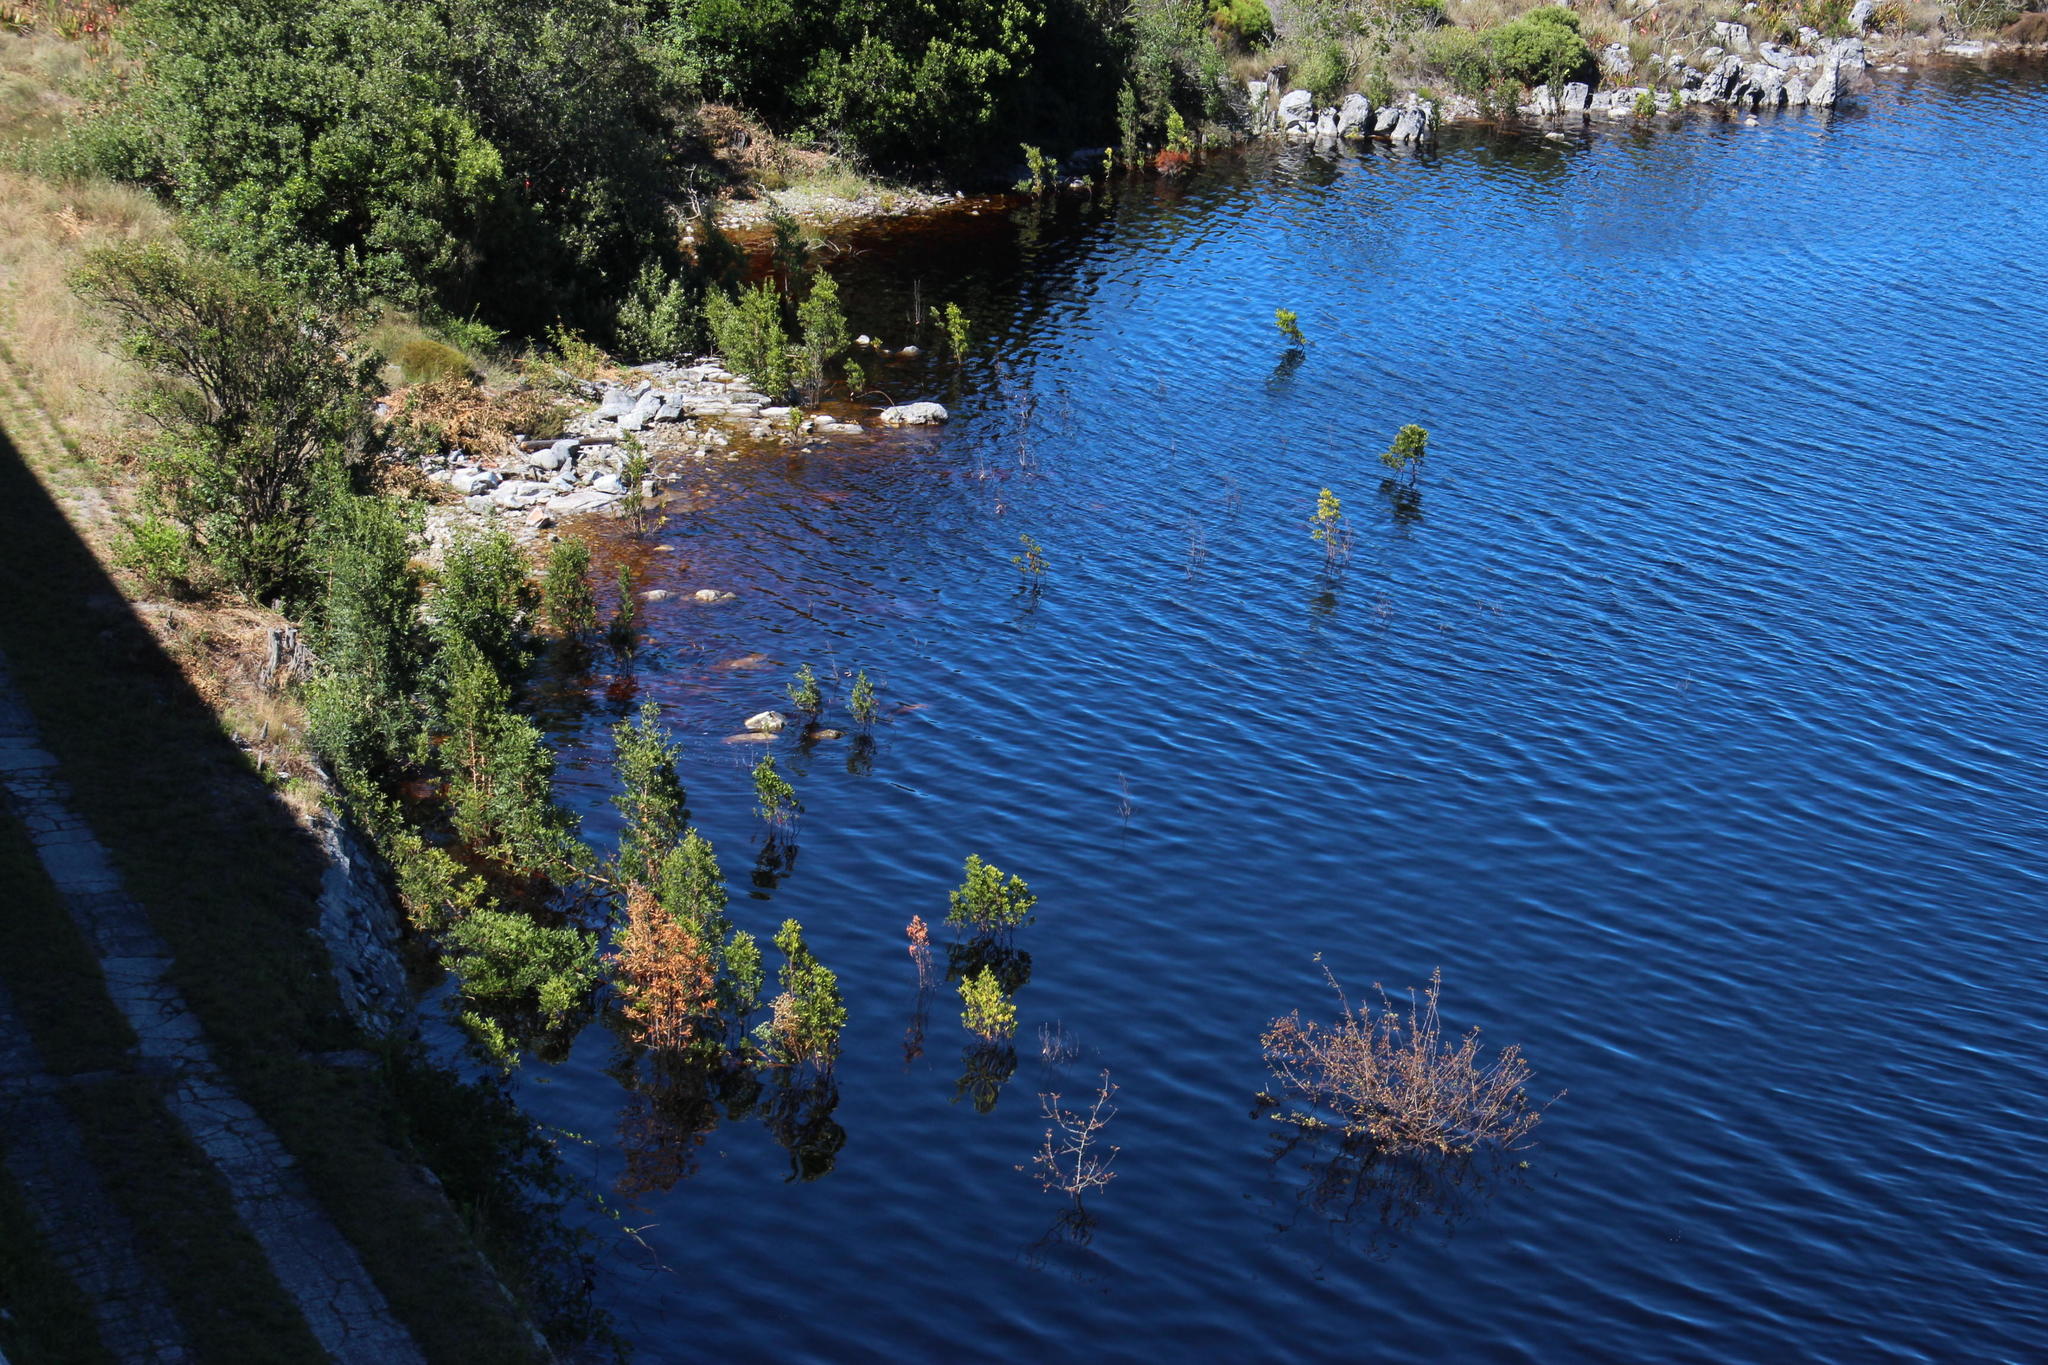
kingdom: Plantae
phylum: Tracheophyta
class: Magnoliopsida
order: Fabales
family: Fabaceae
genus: Acacia
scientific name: Acacia melanoxylon
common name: Blackwood
